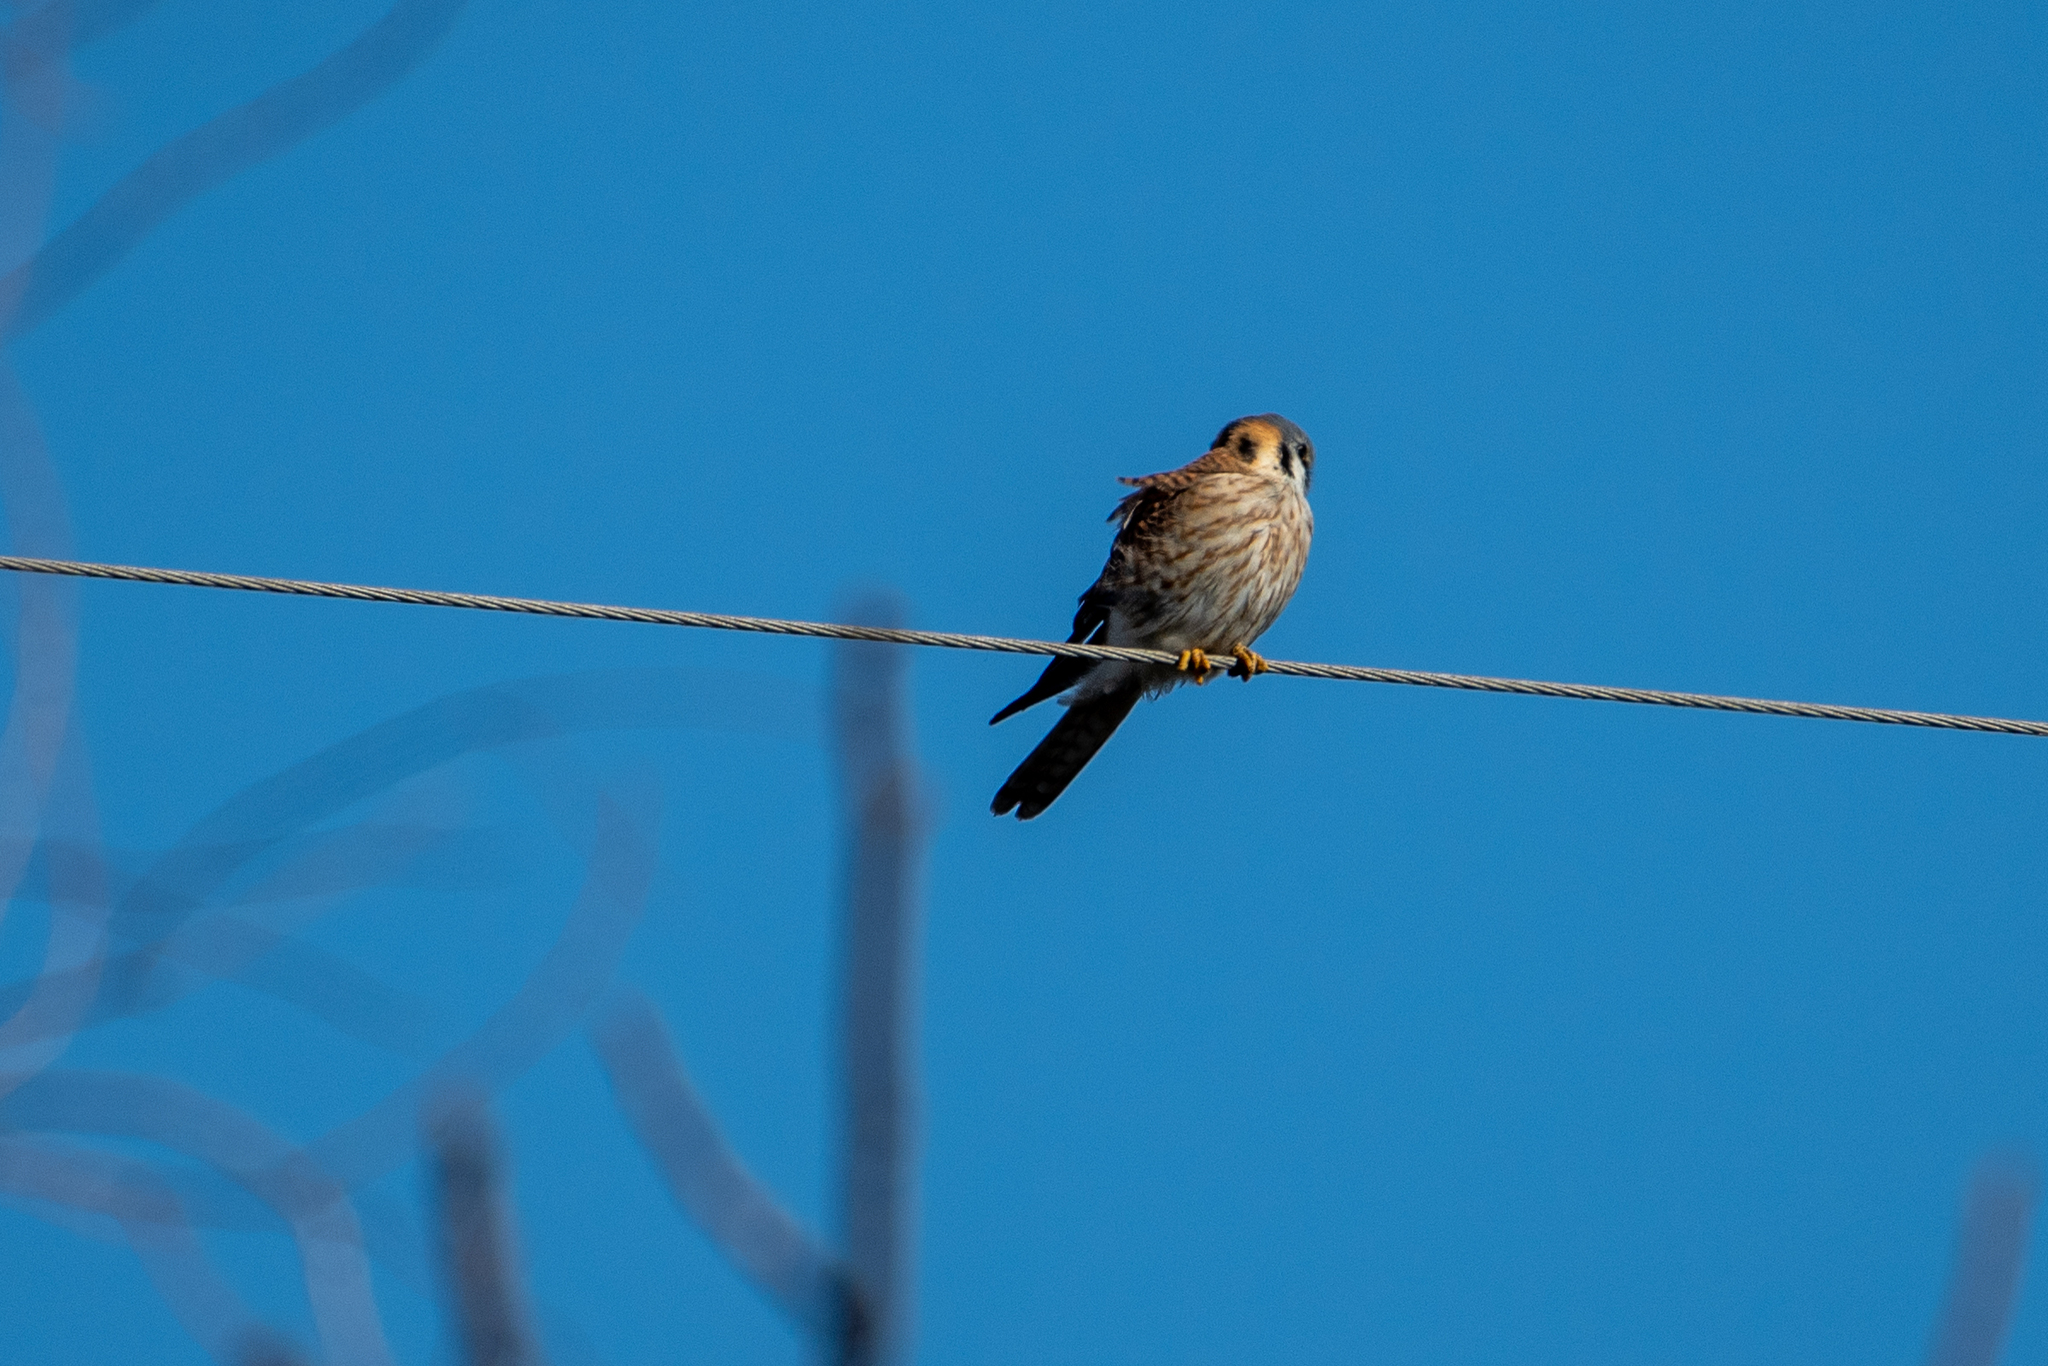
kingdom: Animalia
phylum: Chordata
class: Aves
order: Falconiformes
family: Falconidae
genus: Falco
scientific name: Falco sparverius
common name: American kestrel
